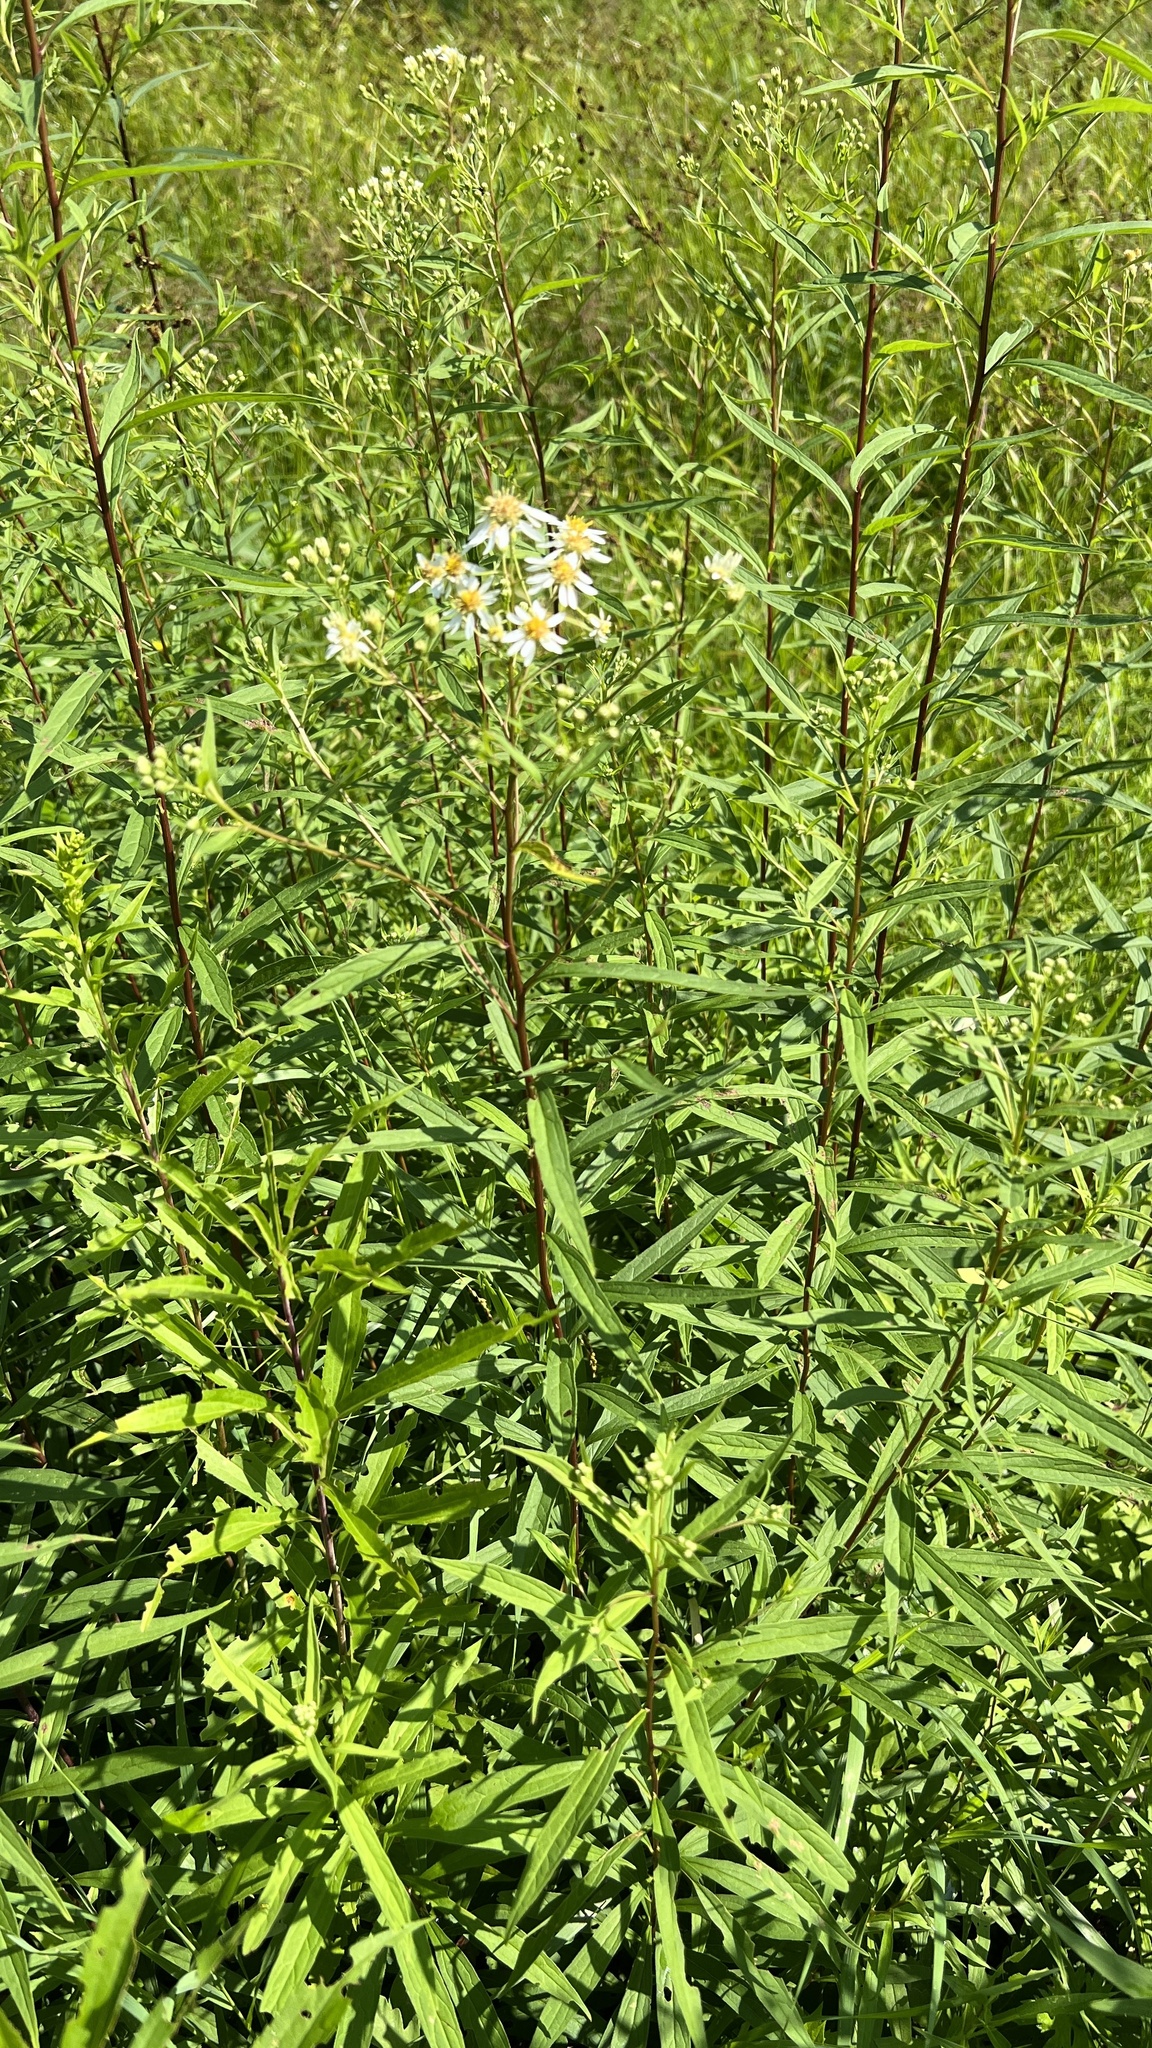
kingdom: Plantae
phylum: Tracheophyta
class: Magnoliopsida
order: Asterales
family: Asteraceae
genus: Doellingeria
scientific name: Doellingeria umbellata
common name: Flat-top white aster
